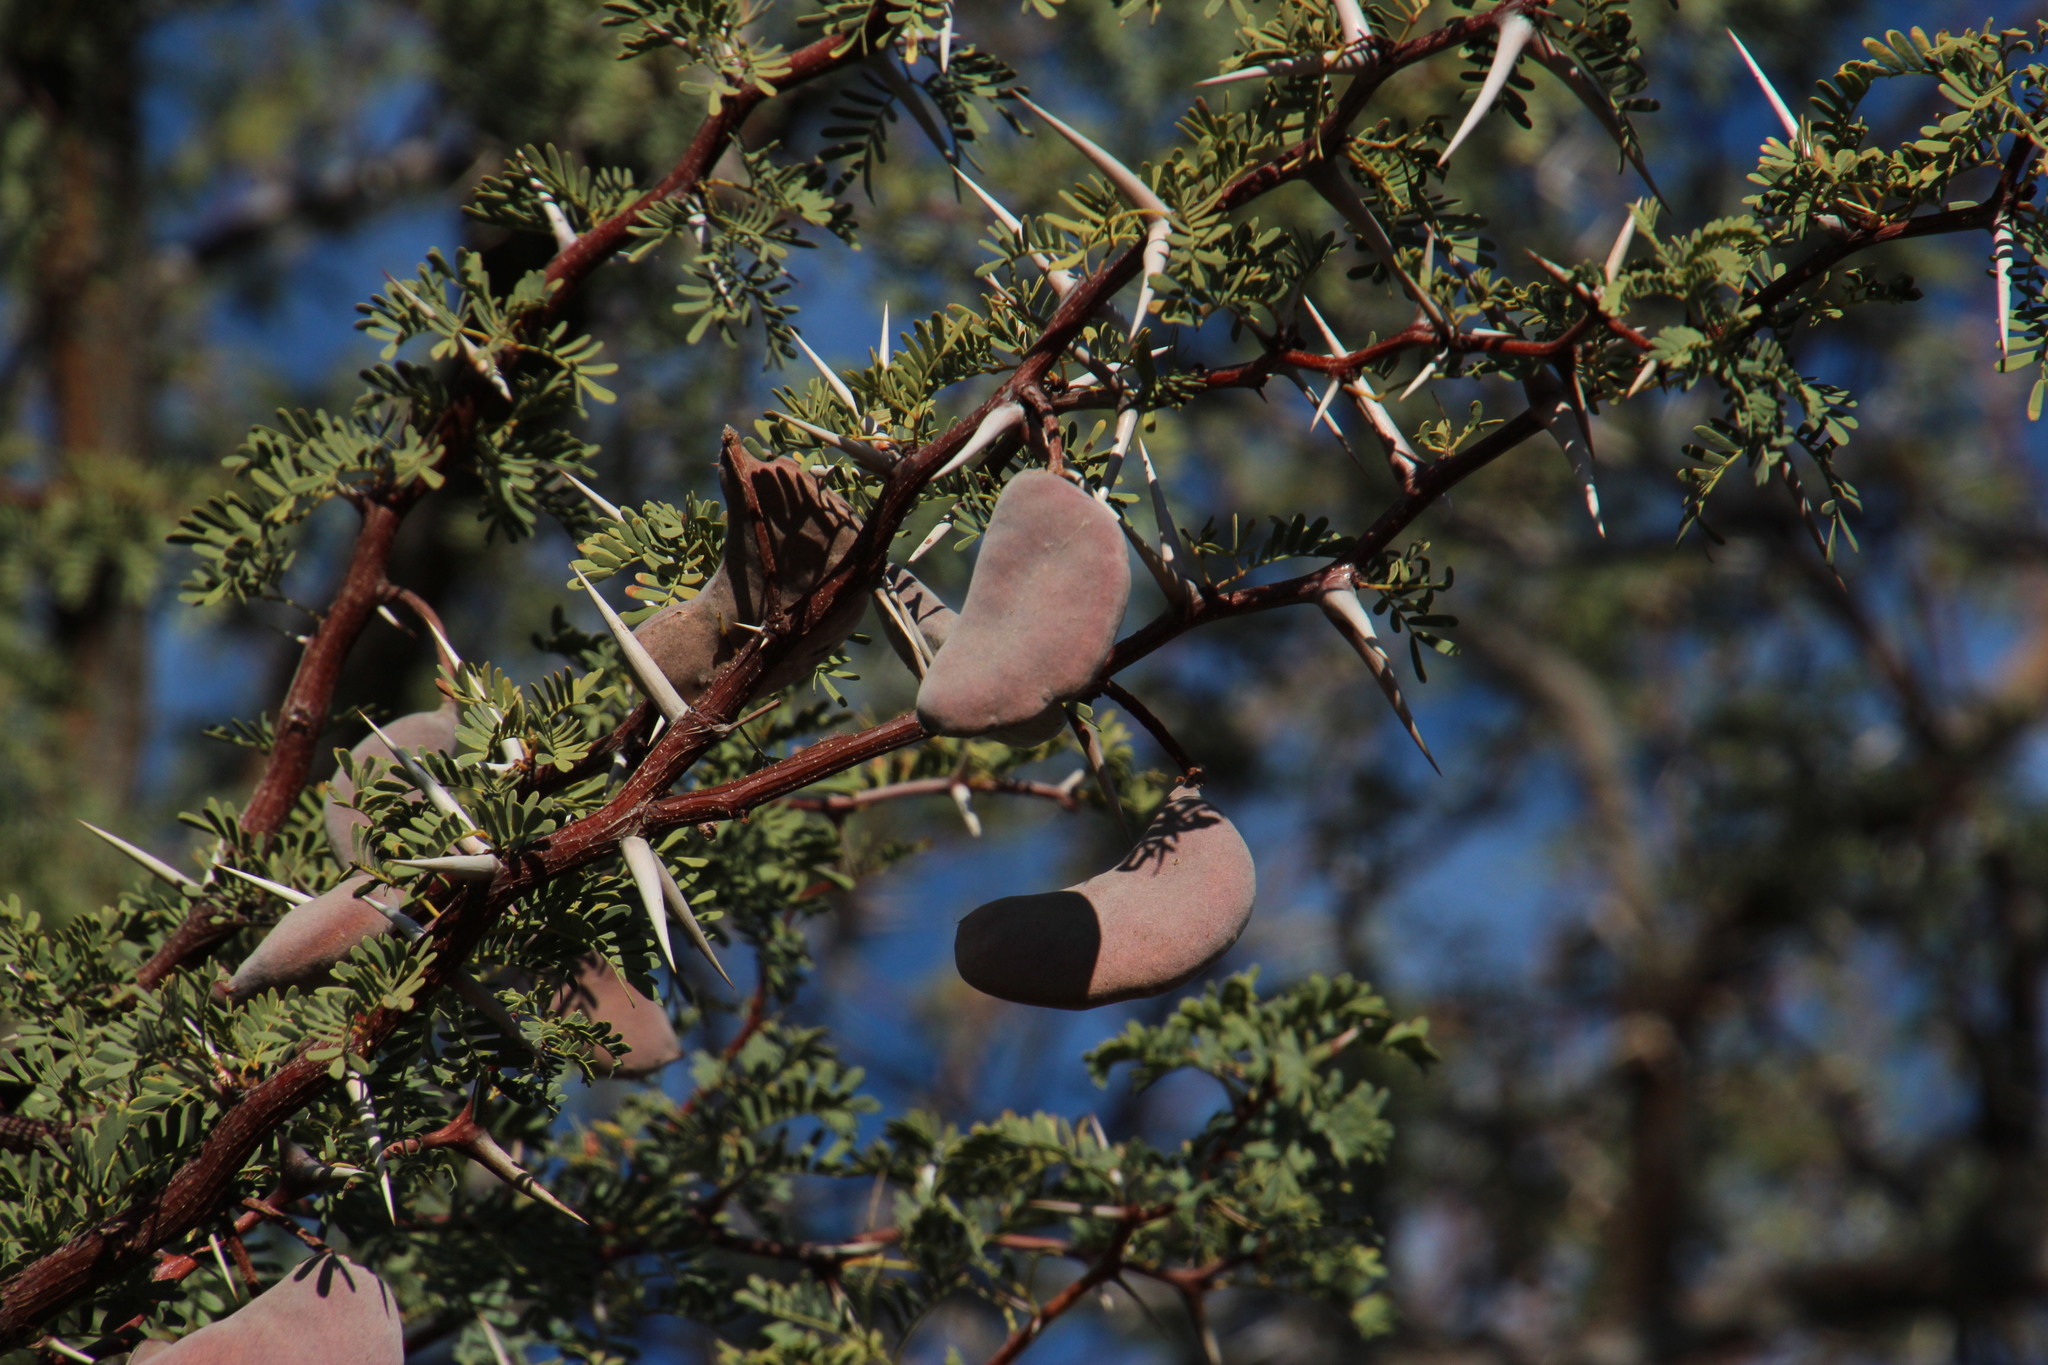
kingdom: Plantae
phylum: Tracheophyta
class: Magnoliopsida
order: Fabales
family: Fabaceae
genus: Vachellia
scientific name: Vachellia erioloba
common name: Camel thorn
